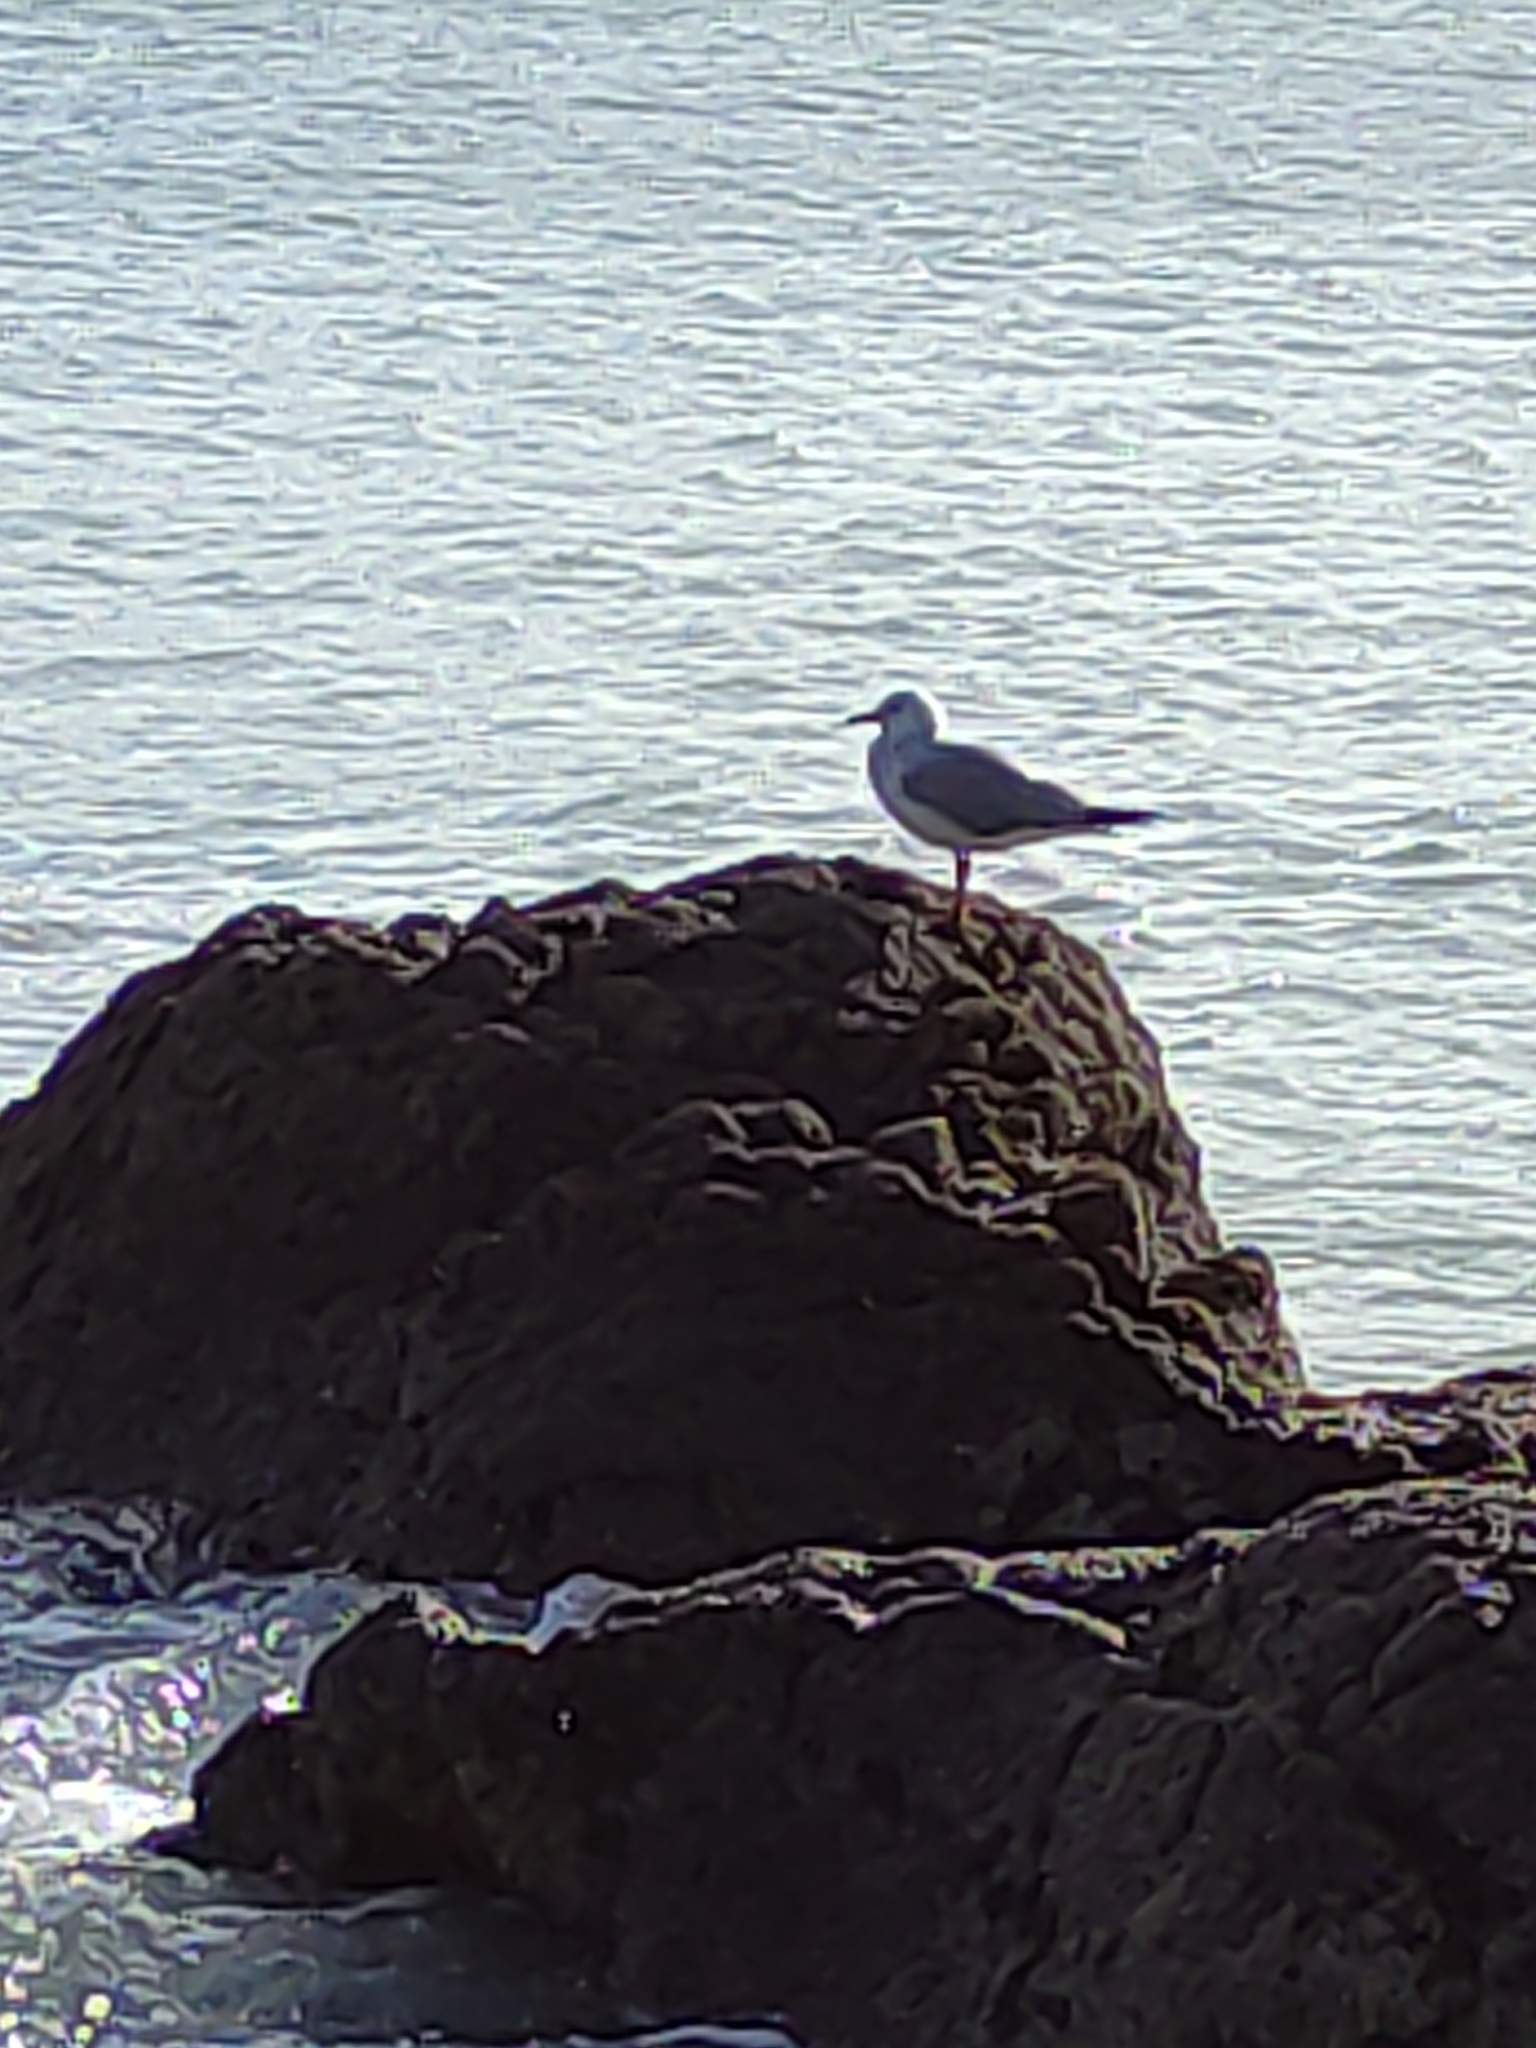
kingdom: Animalia
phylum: Chordata
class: Aves
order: Charadriiformes
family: Laridae
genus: Chroicocephalus
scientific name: Chroicocephalus novaehollandiae
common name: Silver gull
